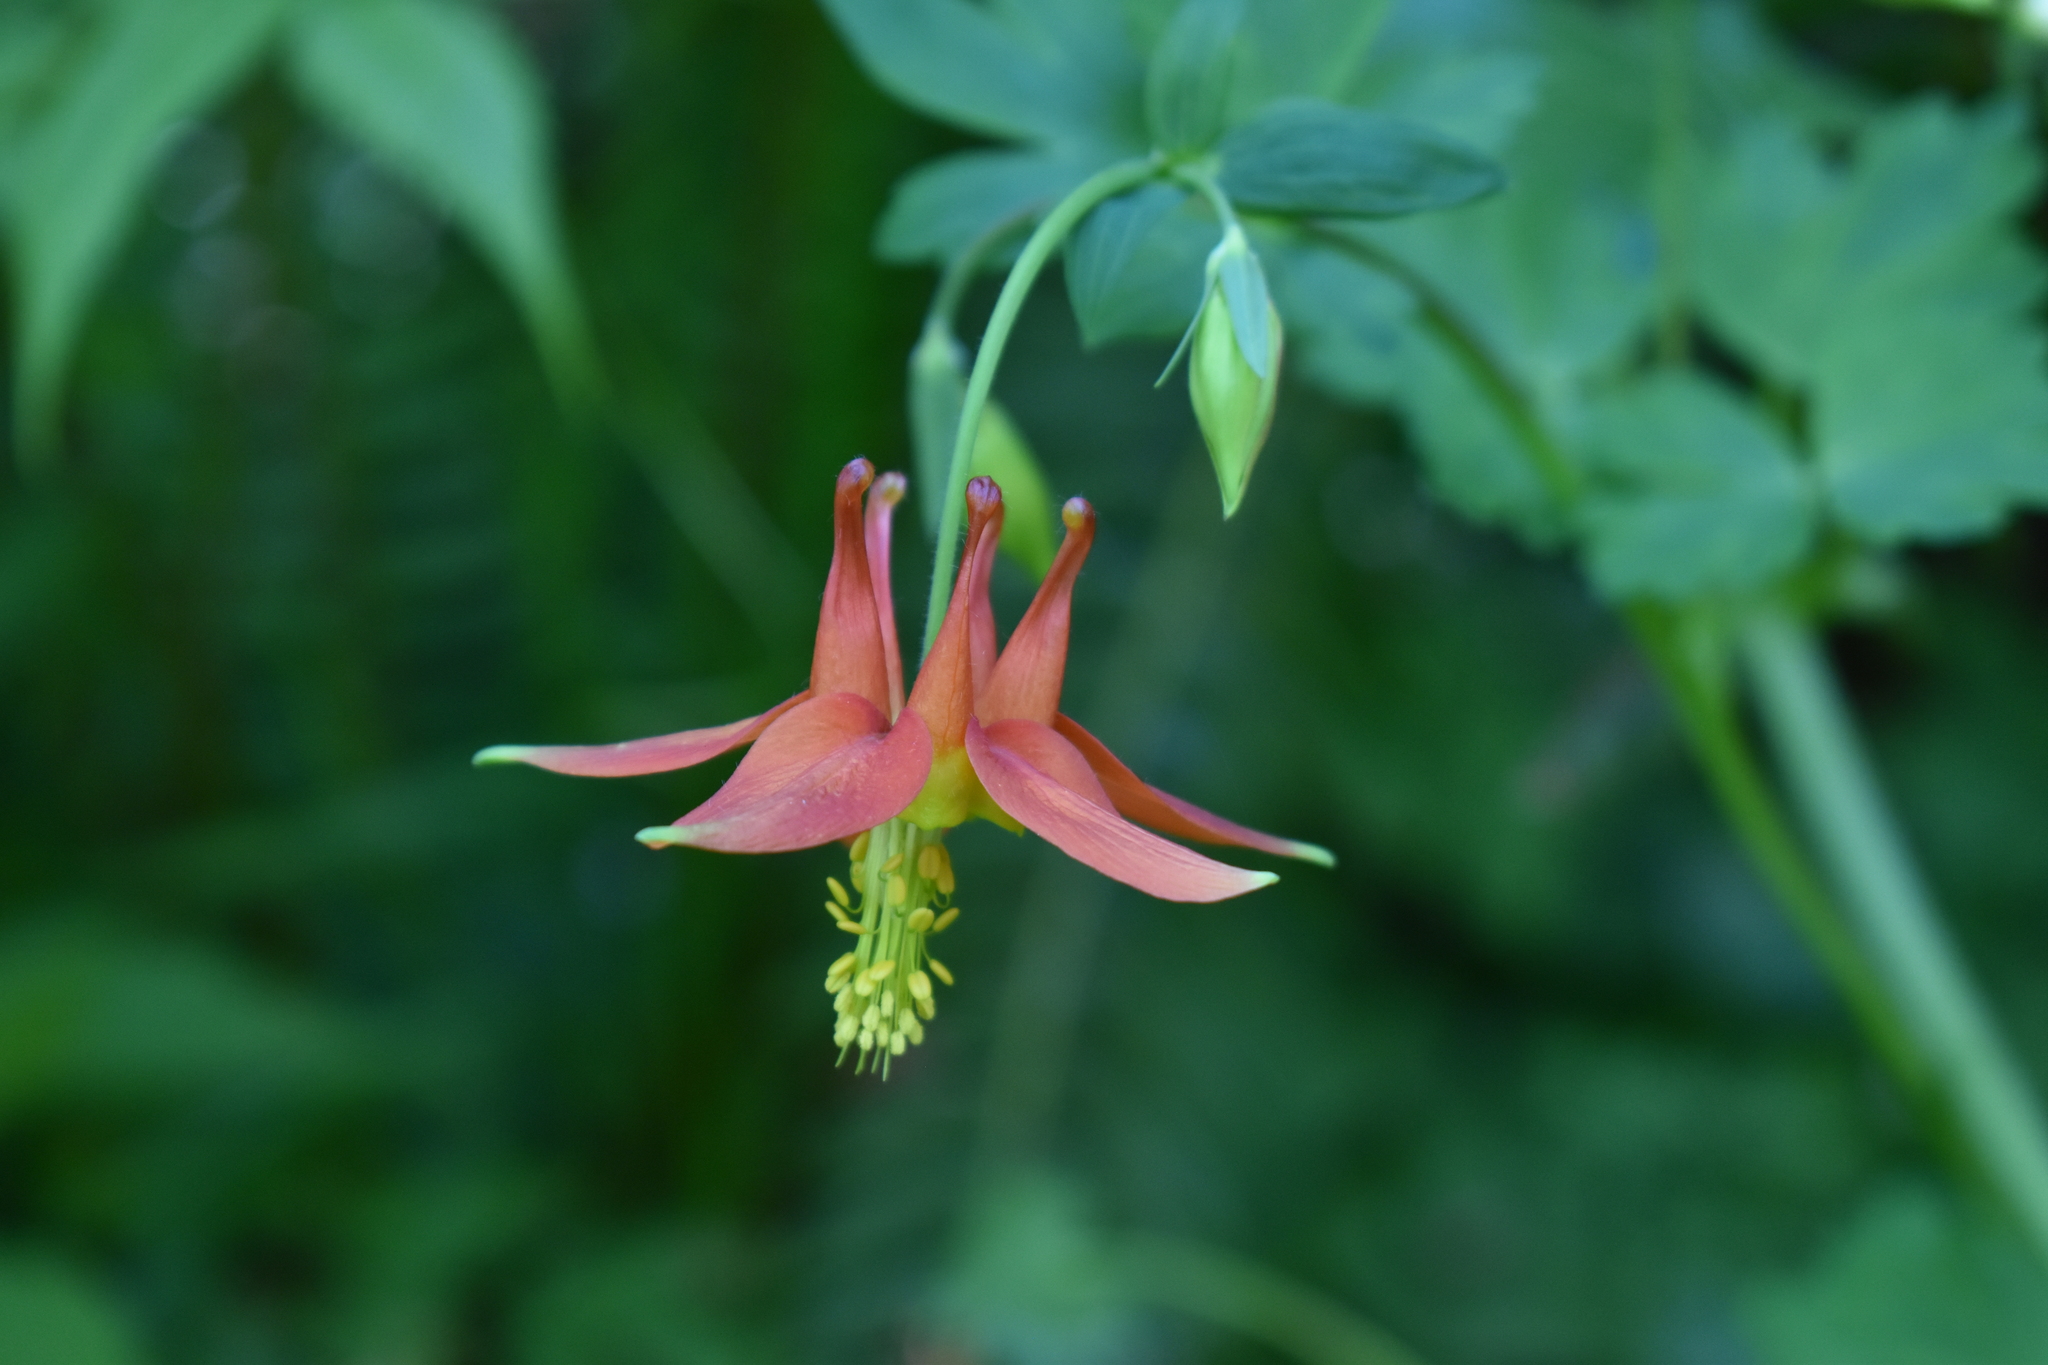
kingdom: Plantae
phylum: Tracheophyta
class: Magnoliopsida
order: Ranunculales
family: Ranunculaceae
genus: Aquilegia
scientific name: Aquilegia formosa
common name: Sitka columbine
